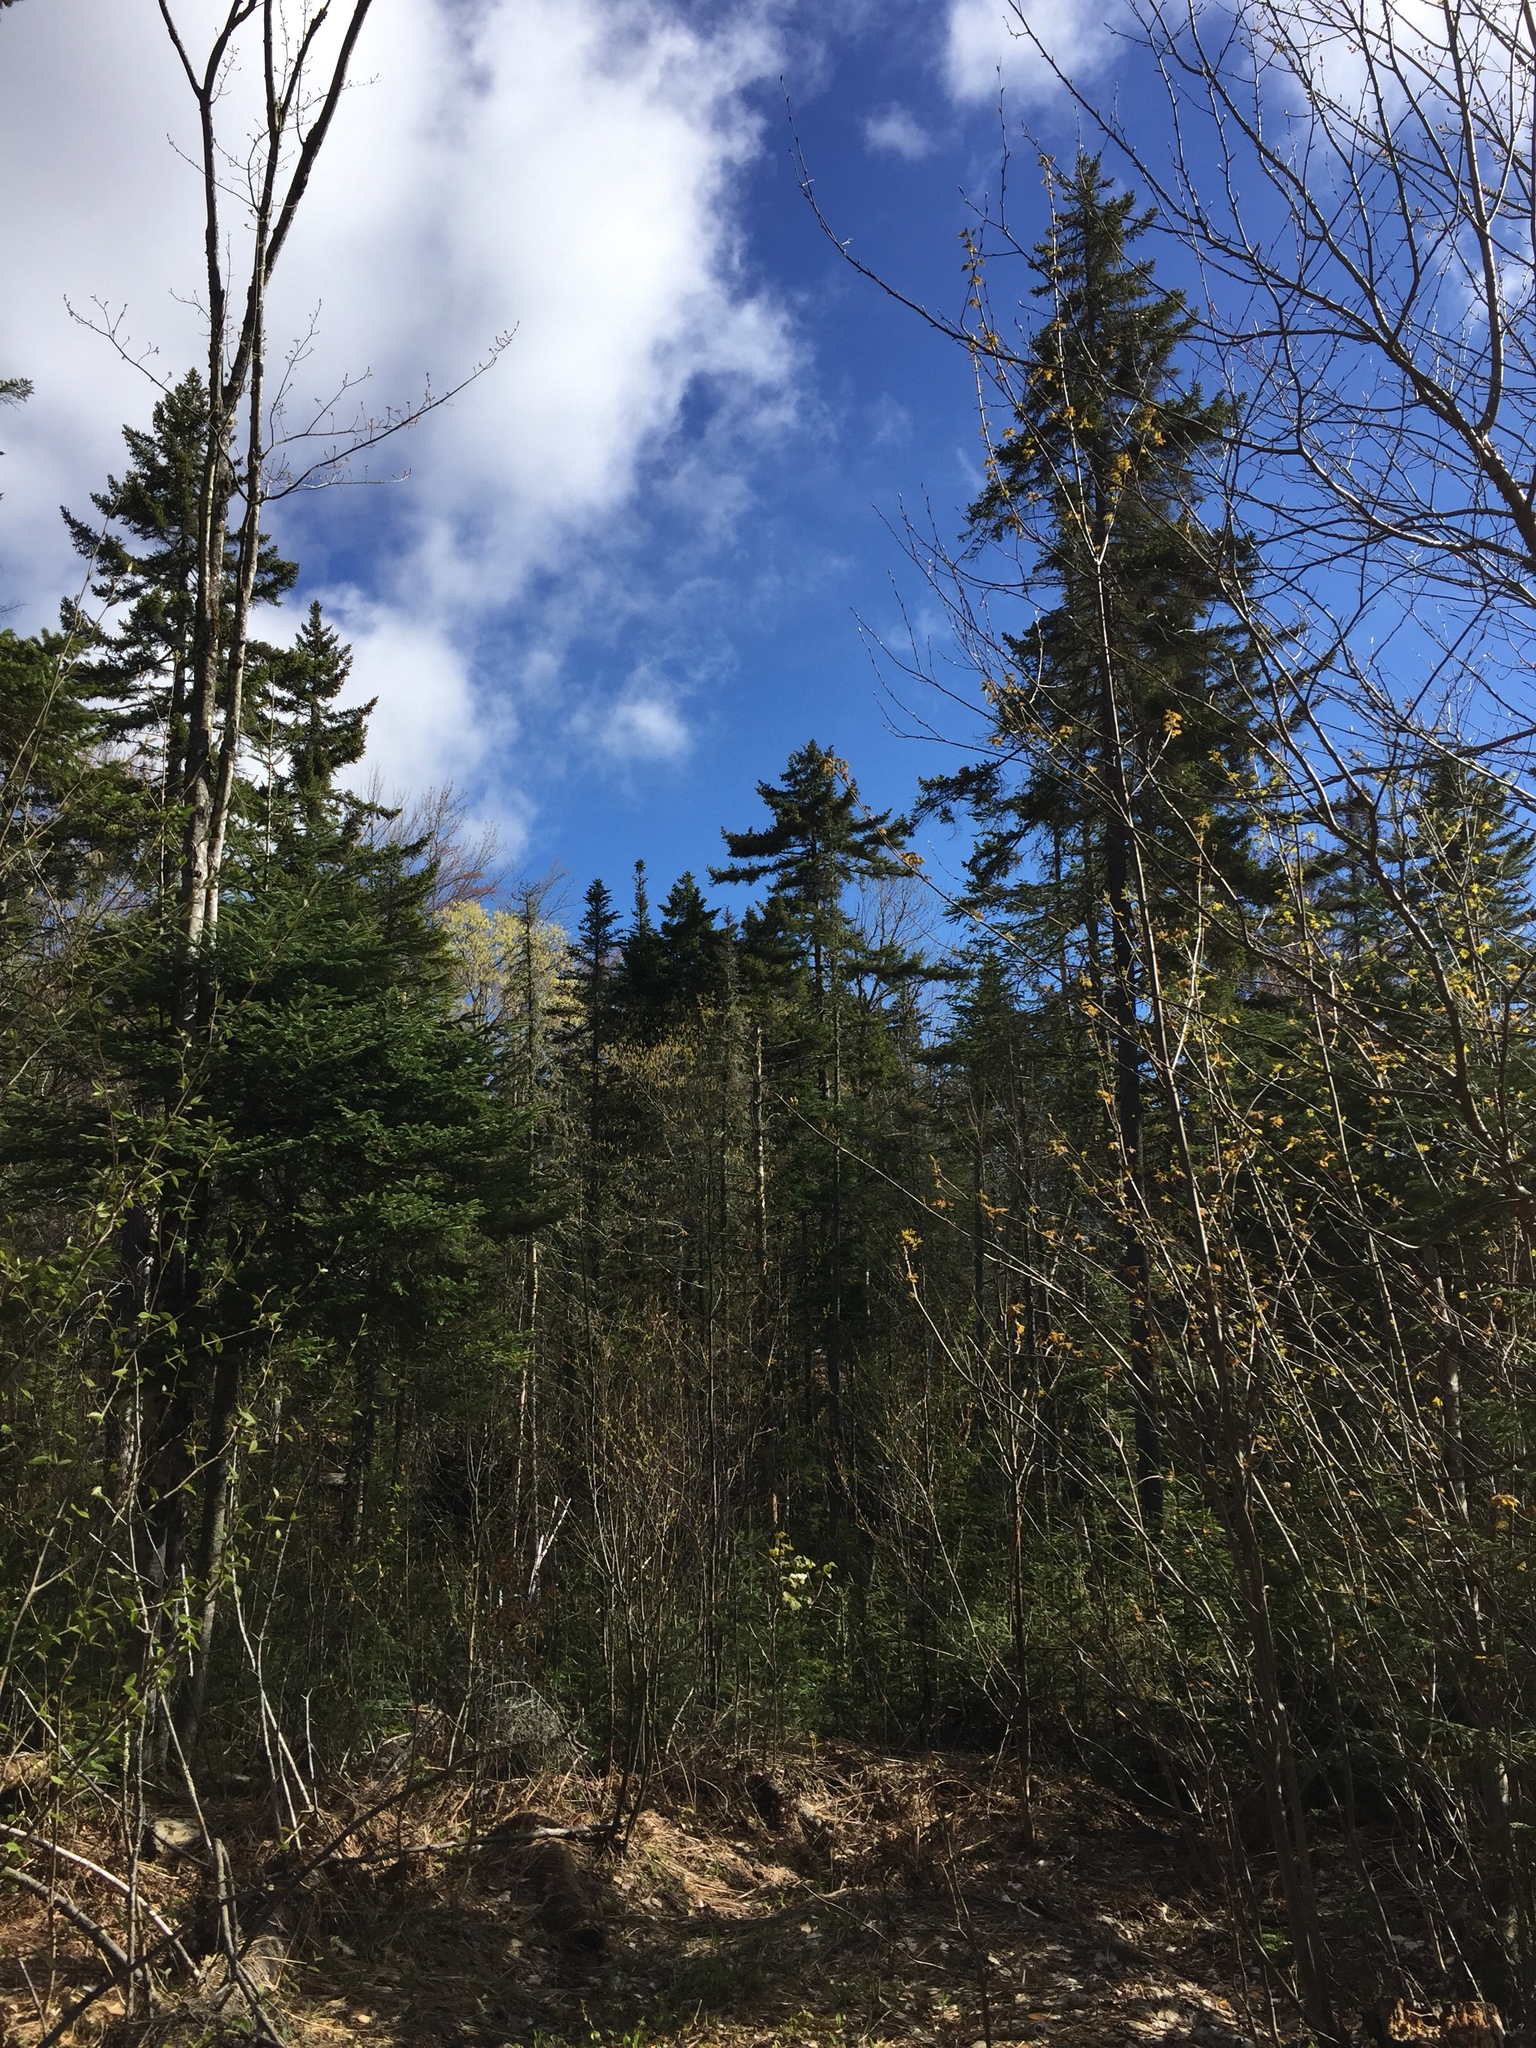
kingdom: Plantae
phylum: Tracheophyta
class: Pinopsida
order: Pinales
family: Pinaceae
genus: Picea
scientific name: Picea rubens
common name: Red spruce
